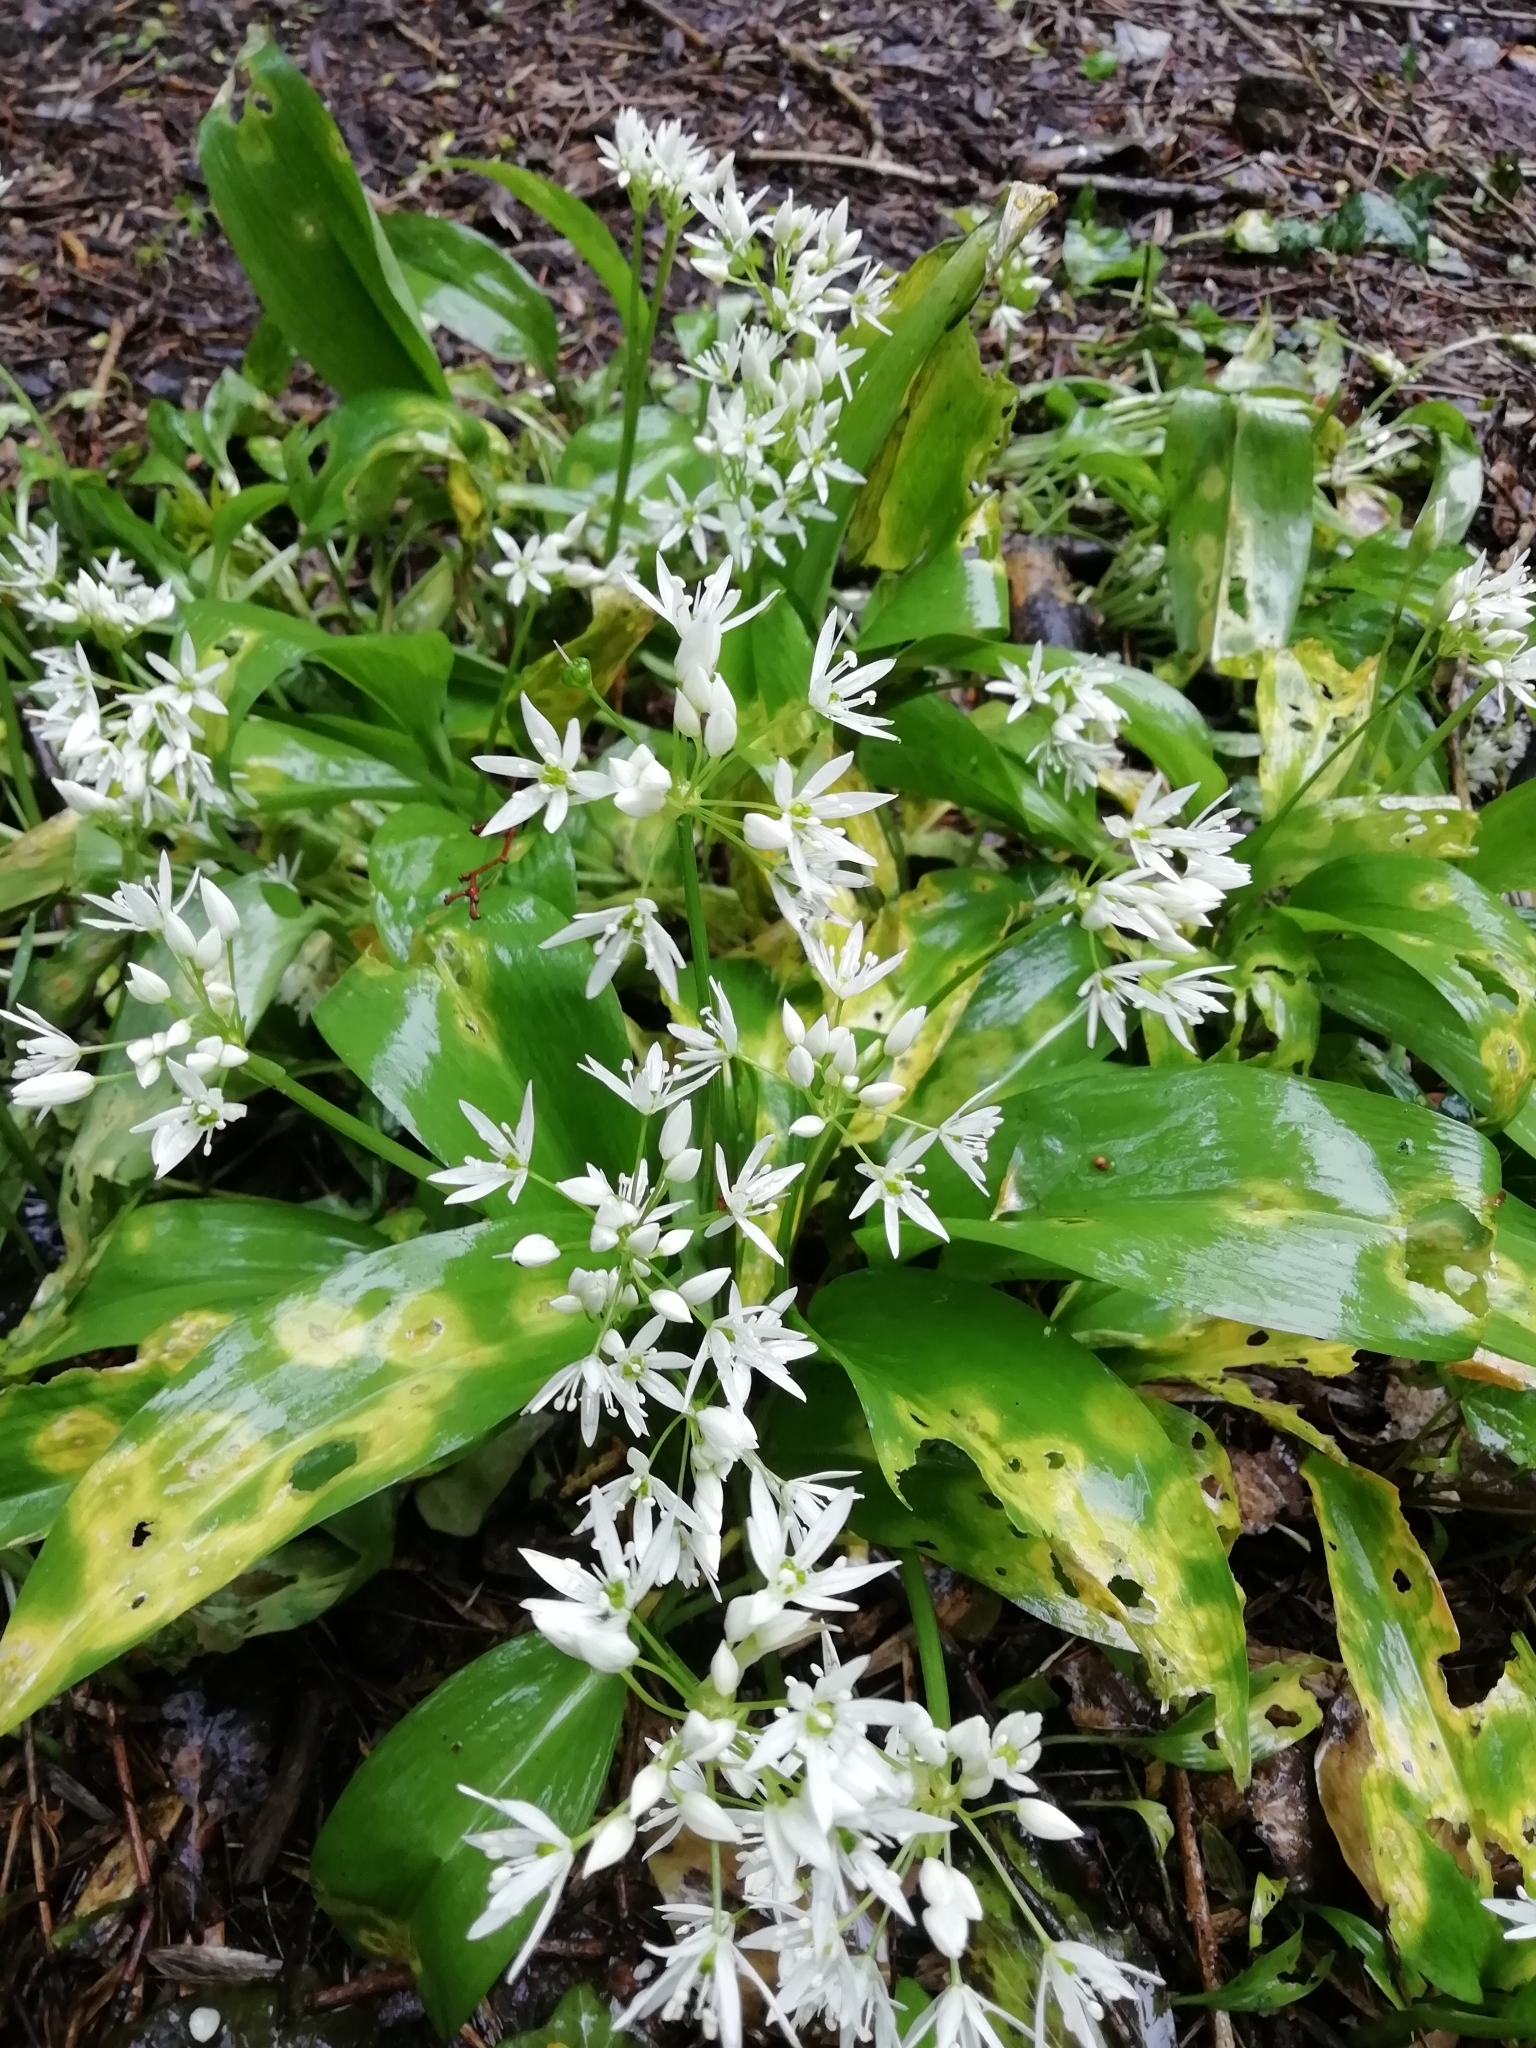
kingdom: Plantae
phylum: Tracheophyta
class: Liliopsida
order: Asparagales
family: Amaryllidaceae
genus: Allium
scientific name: Allium ursinum
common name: Ramsons
